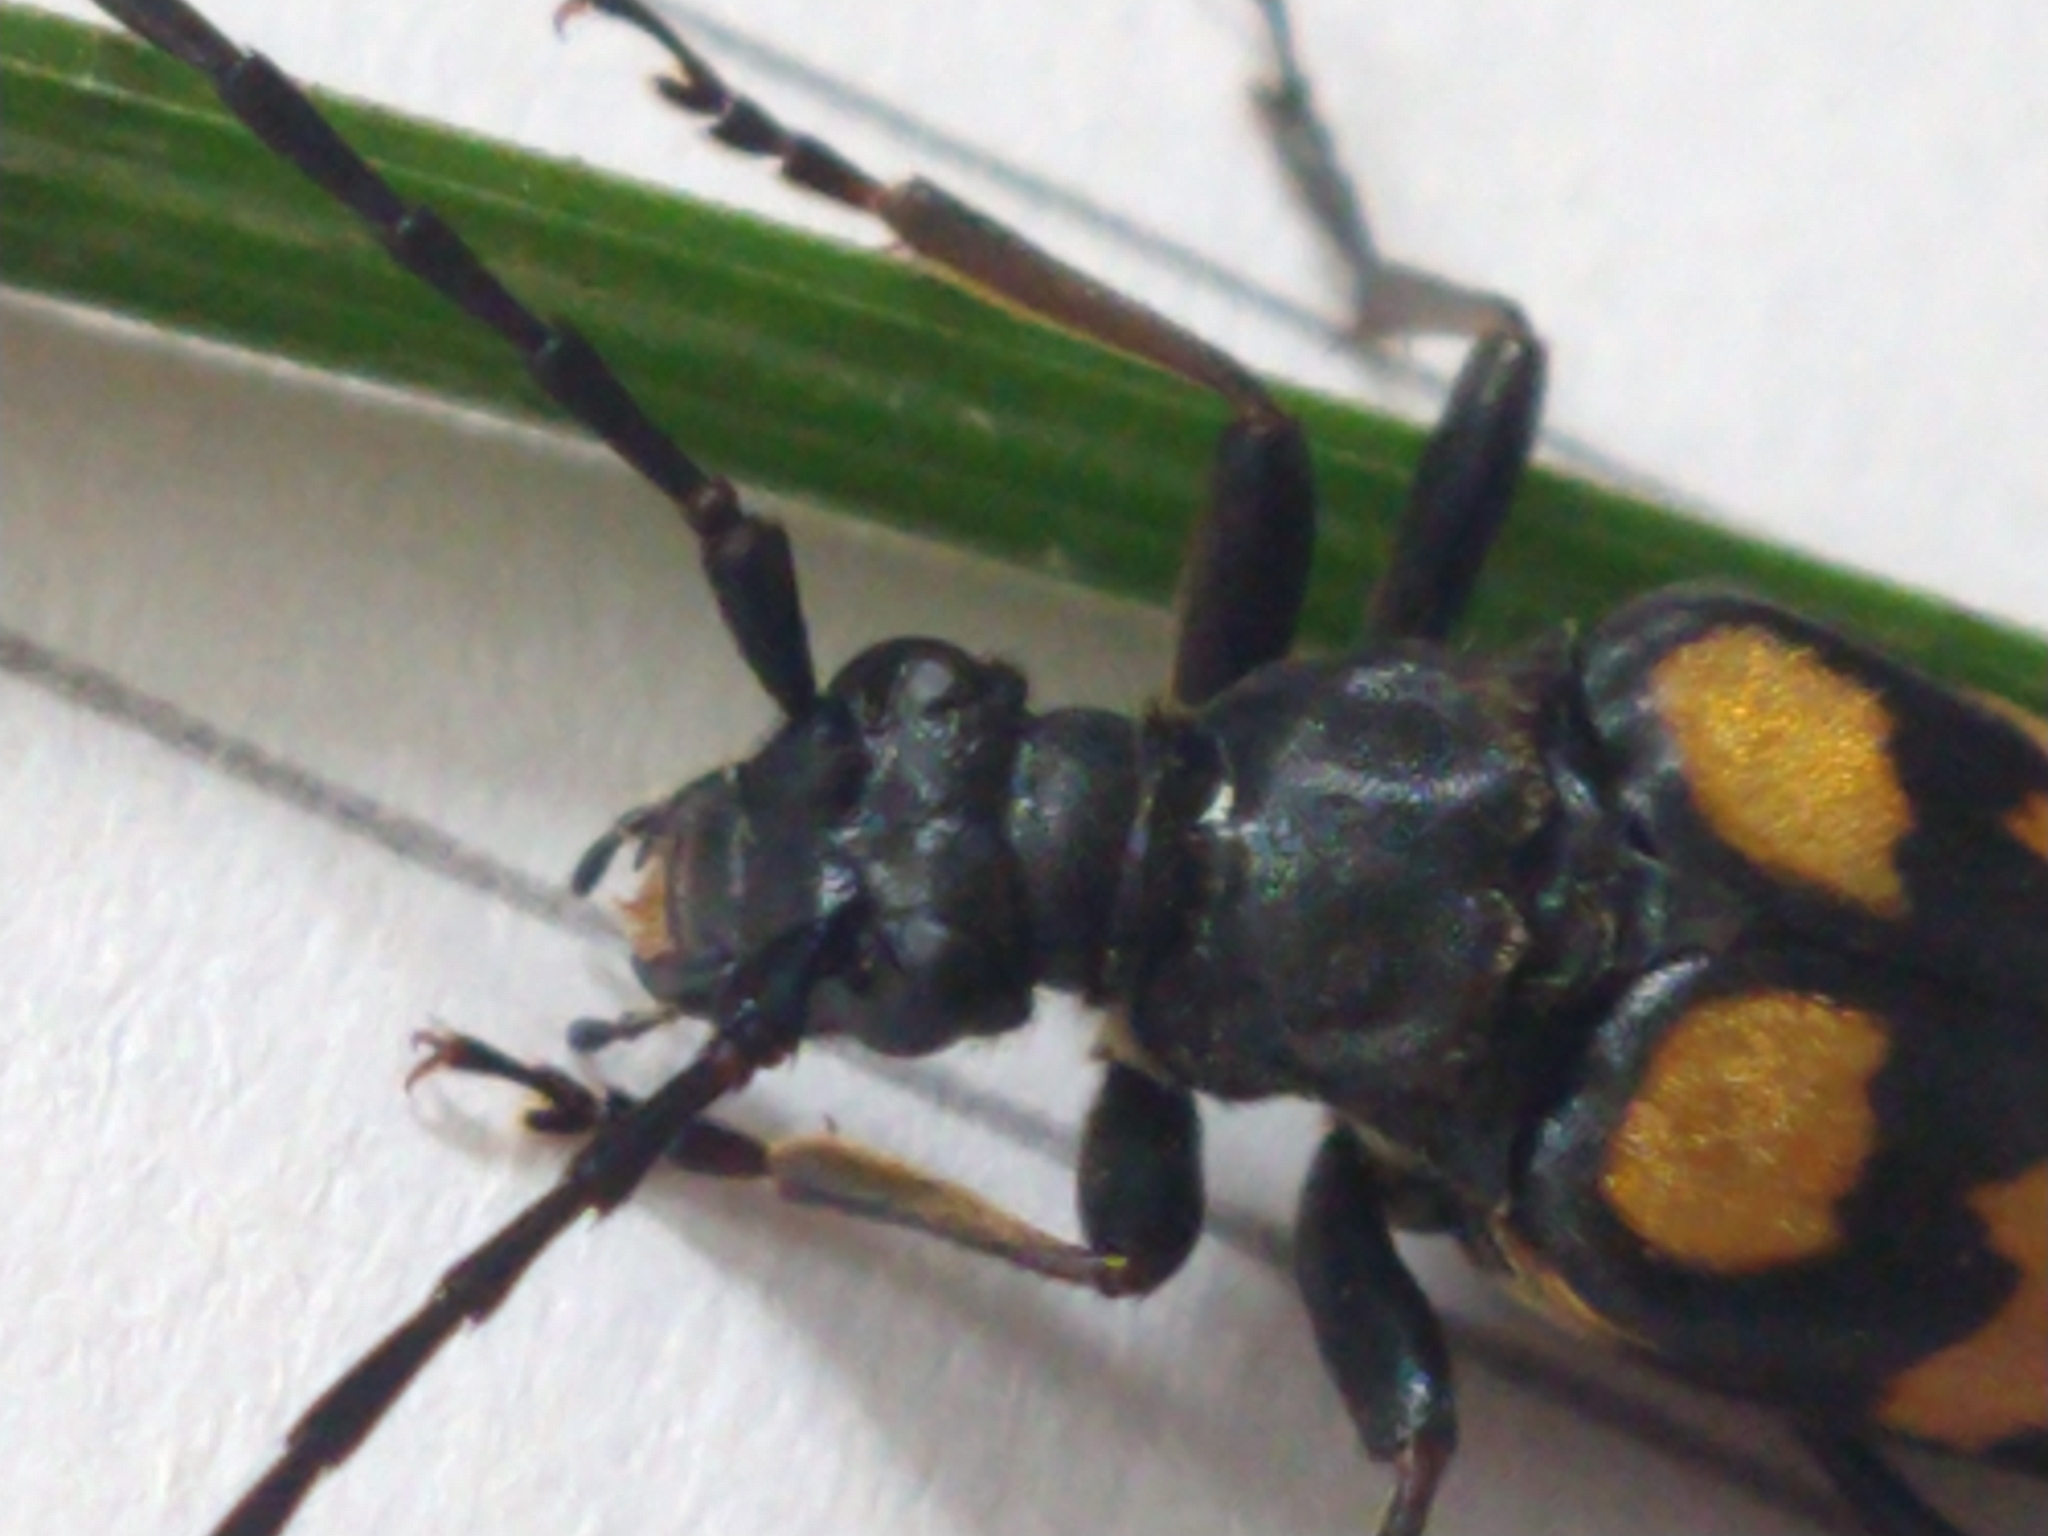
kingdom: Animalia
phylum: Arthropoda
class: Insecta
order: Coleoptera
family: Cerambycidae
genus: Leptura
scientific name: Leptura quadrifasciata
